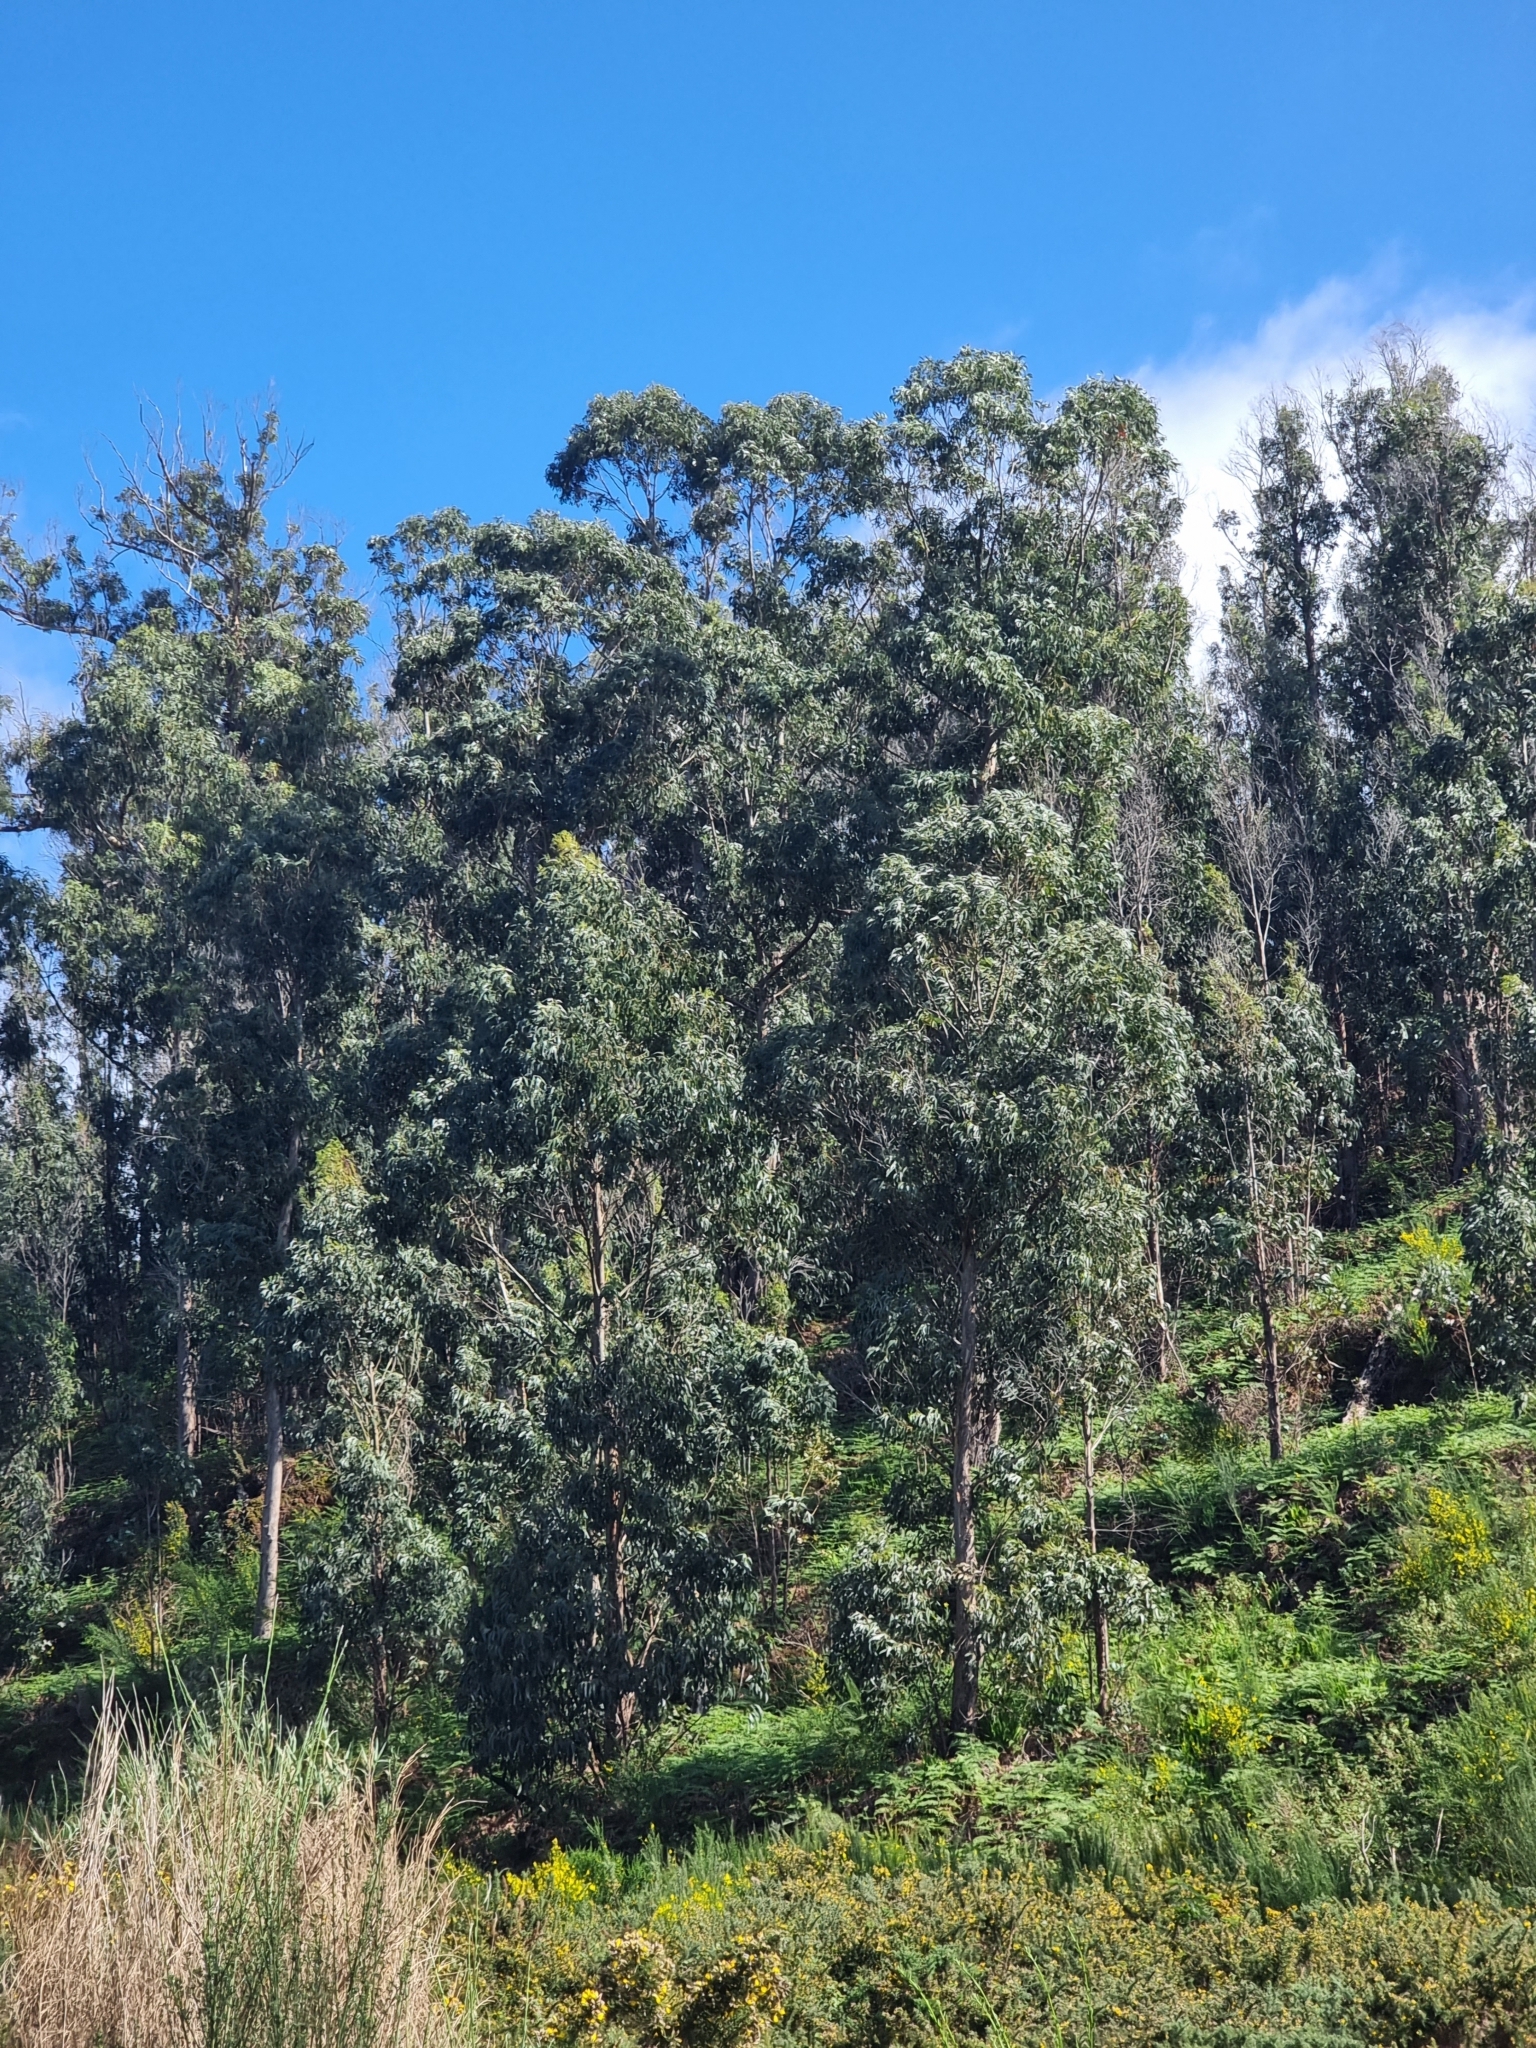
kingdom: Plantae
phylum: Tracheophyta
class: Magnoliopsida
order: Myrtales
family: Myrtaceae
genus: Eucalyptus
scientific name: Eucalyptus globulus
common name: Southern blue-gum
